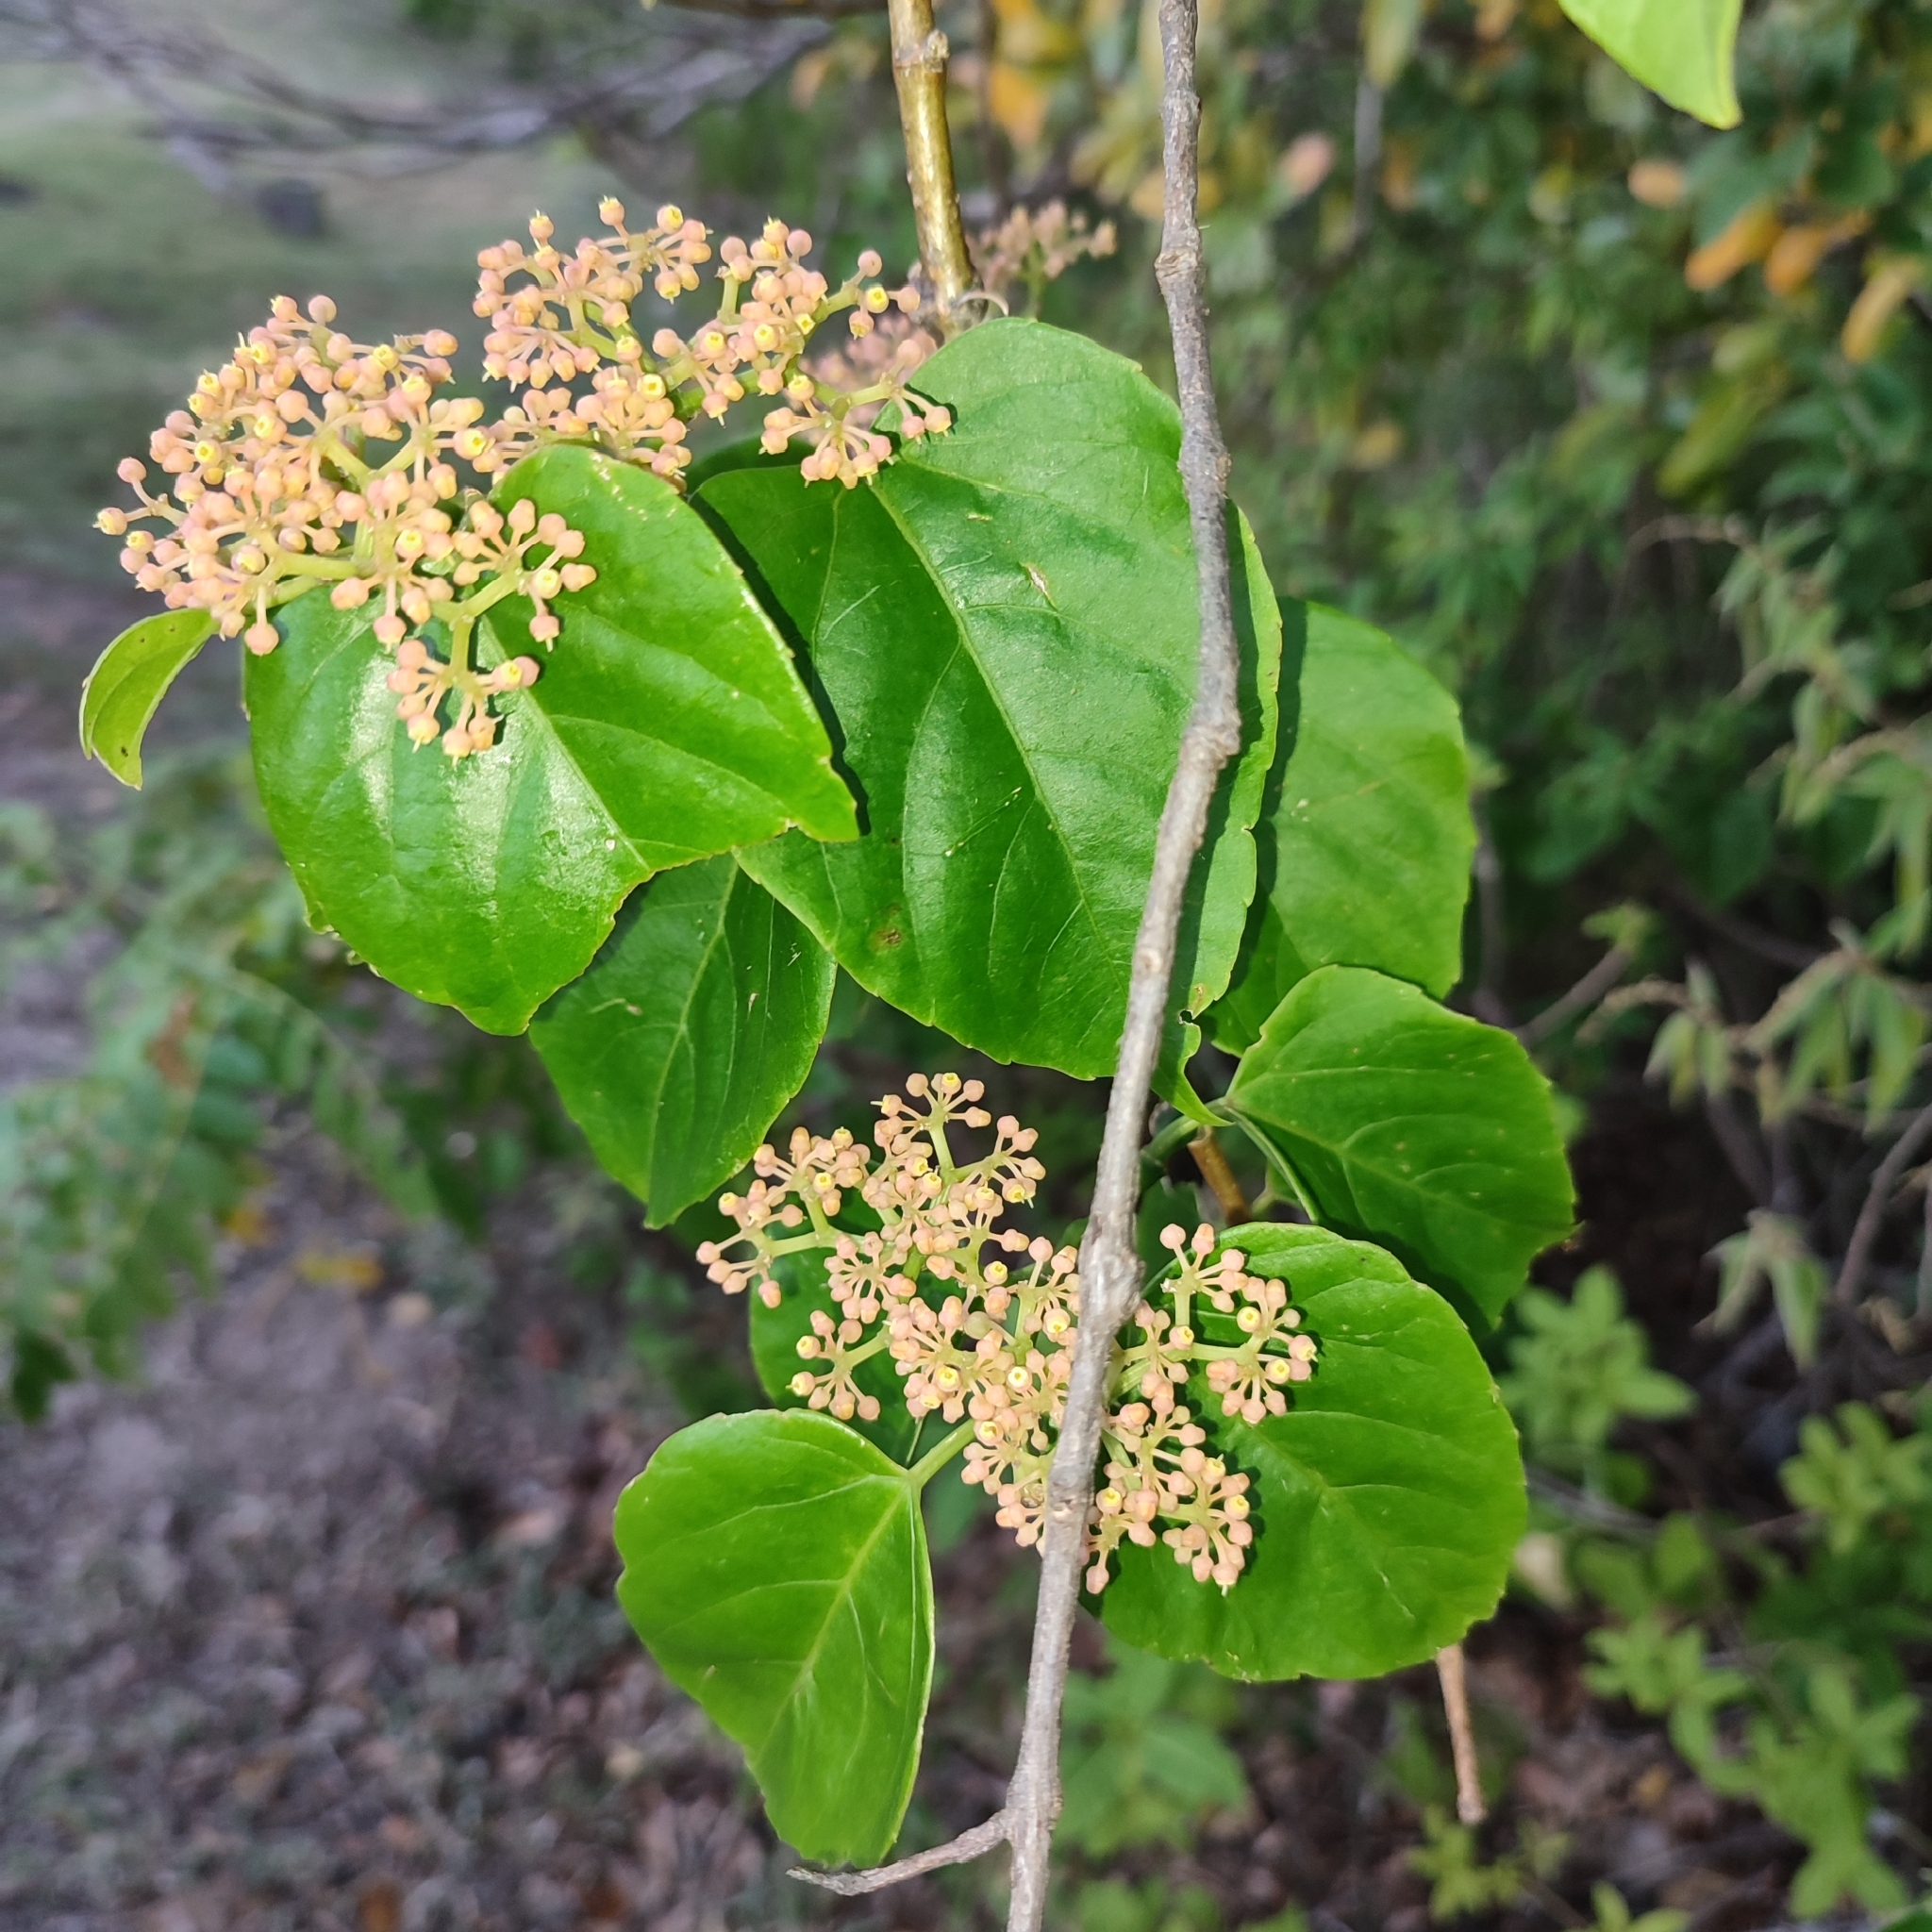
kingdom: Plantae
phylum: Tracheophyta
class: Magnoliopsida
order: Vitales
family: Vitaceae
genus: Cissus
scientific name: Cissus verticillata
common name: Princess vine
